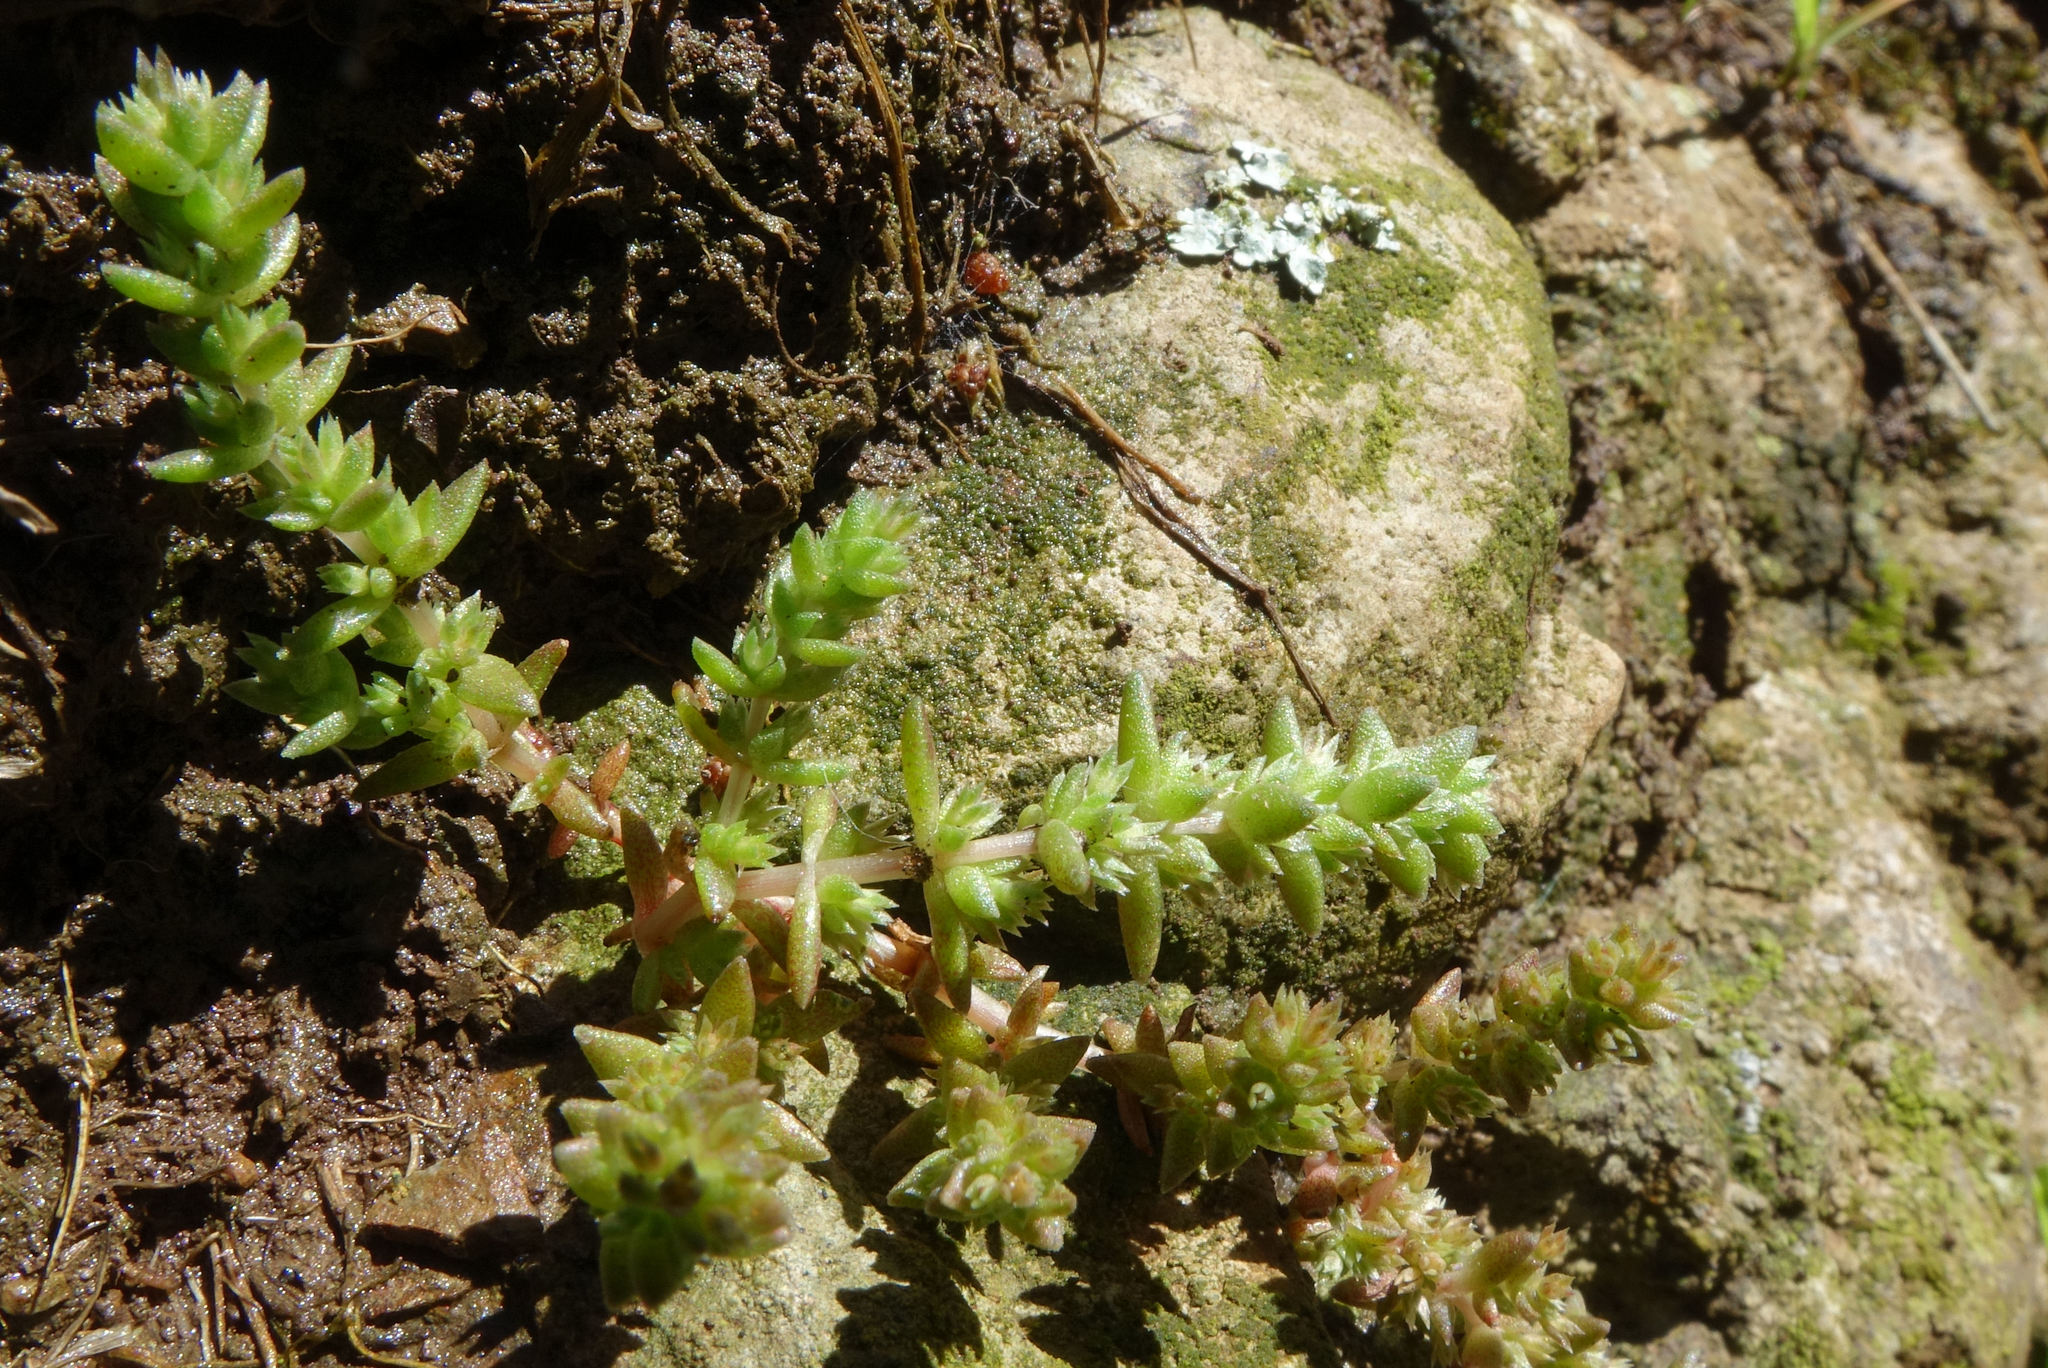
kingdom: Plantae
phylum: Tracheophyta
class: Magnoliopsida
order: Saxifragales
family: Crassulaceae
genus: Crassula
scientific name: Crassula sieberiana
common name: Siberian pygmyweed
